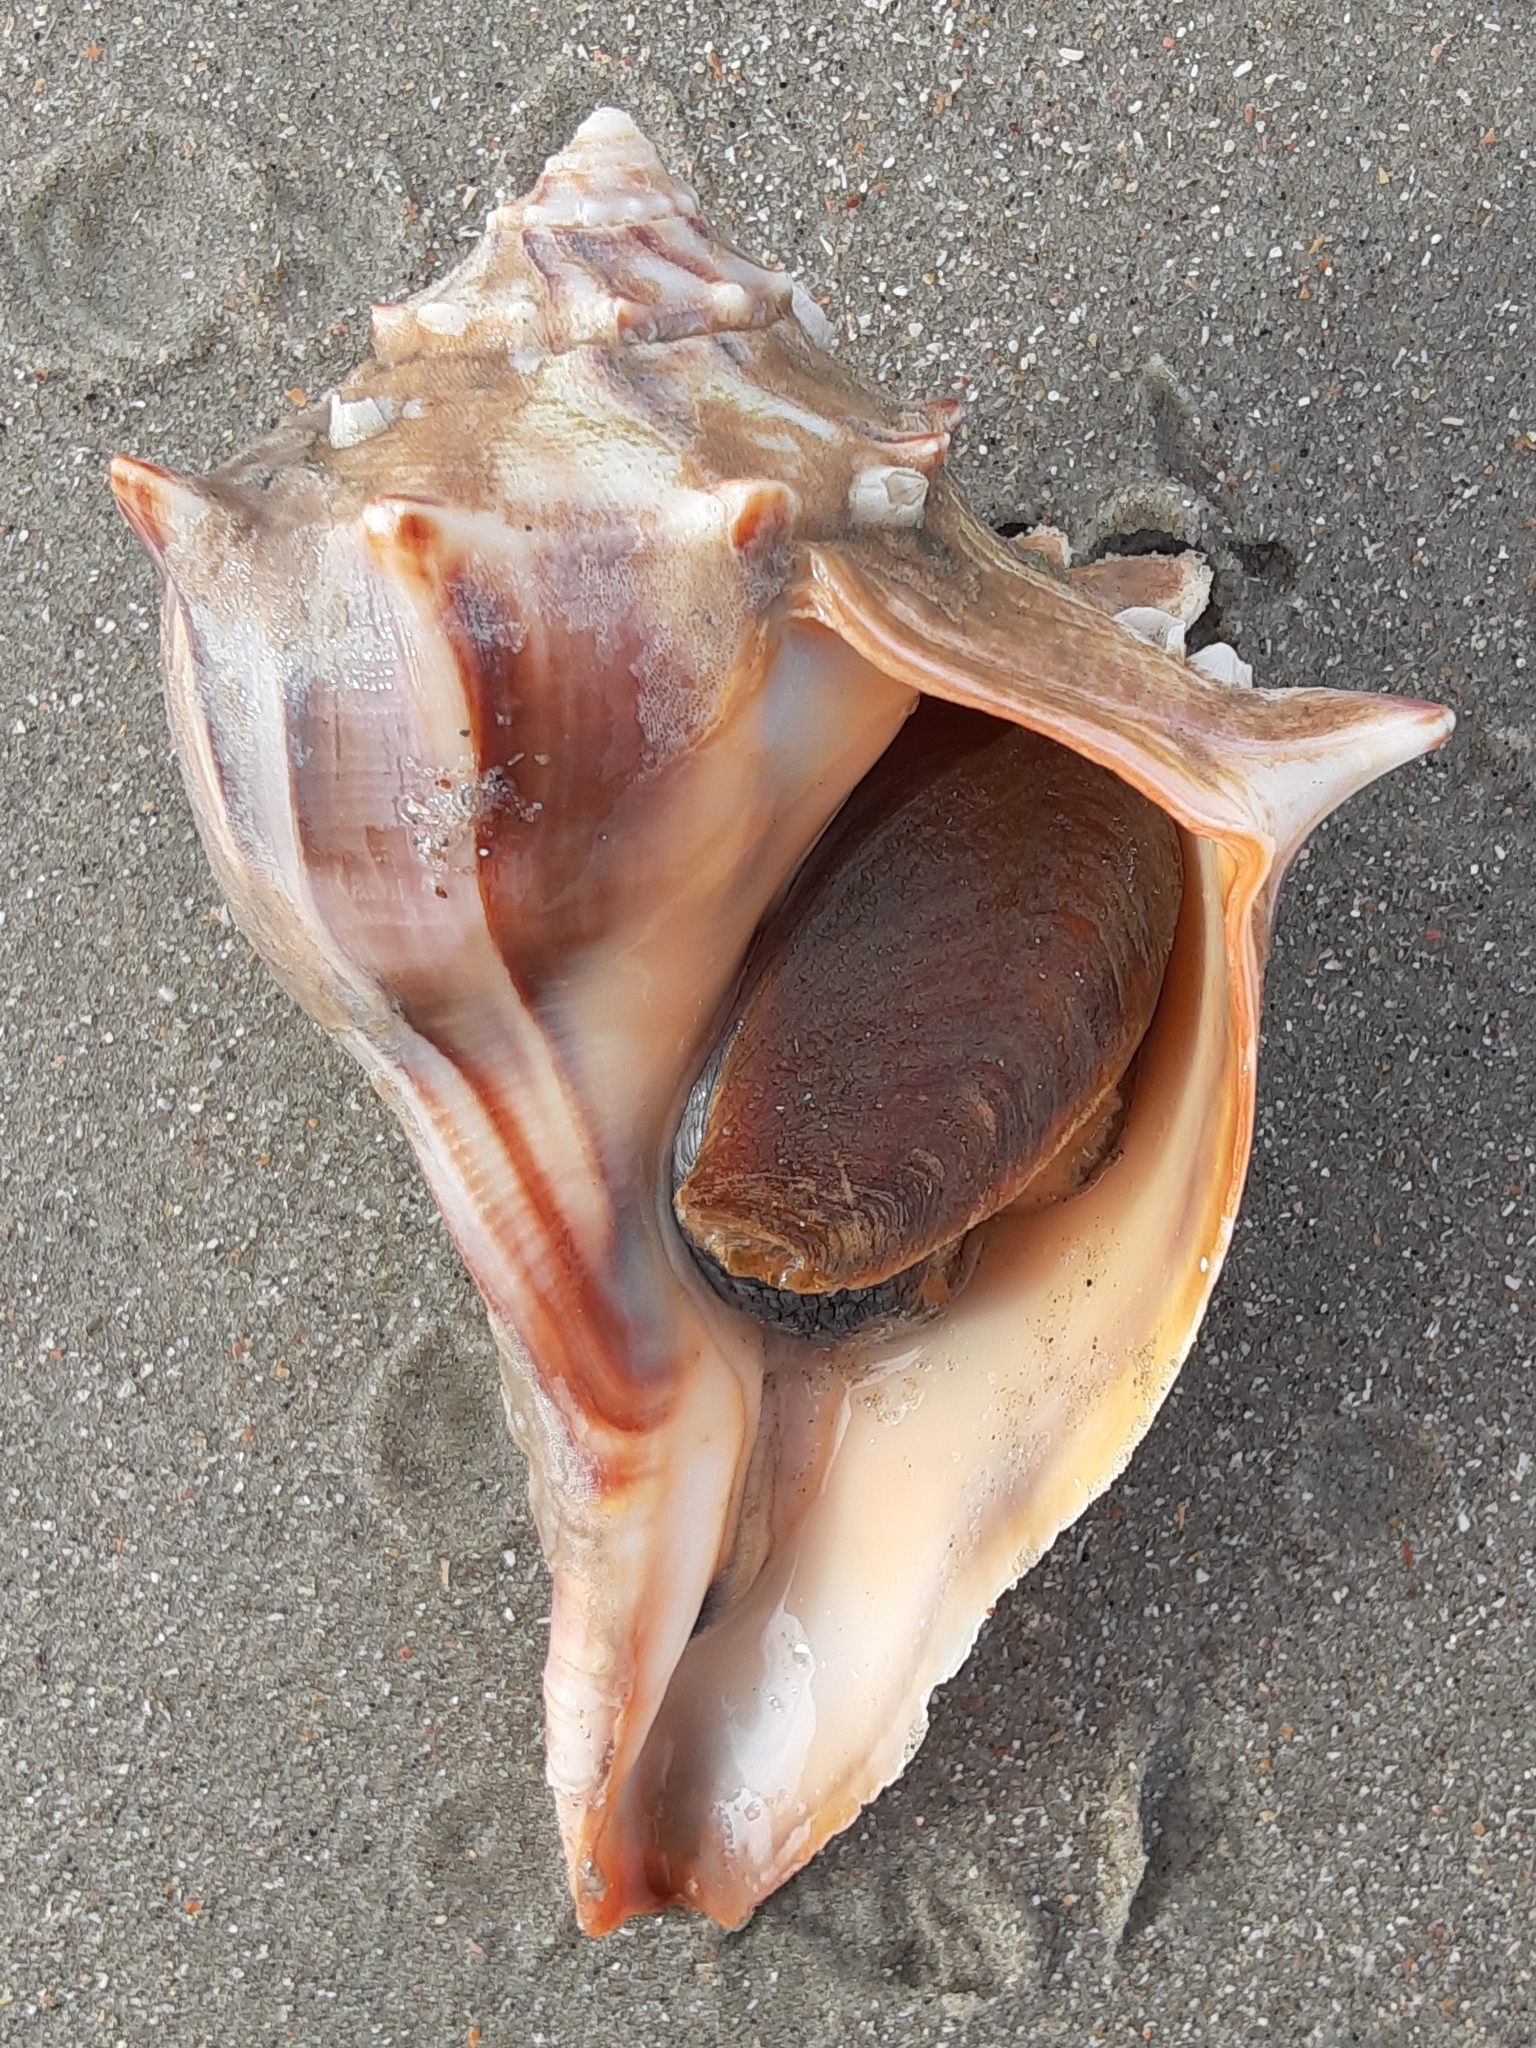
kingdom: Animalia
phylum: Mollusca
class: Gastropoda
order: Neogastropoda
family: Busyconidae
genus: Busycon
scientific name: Busycon carica
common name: Knobbed whelk
